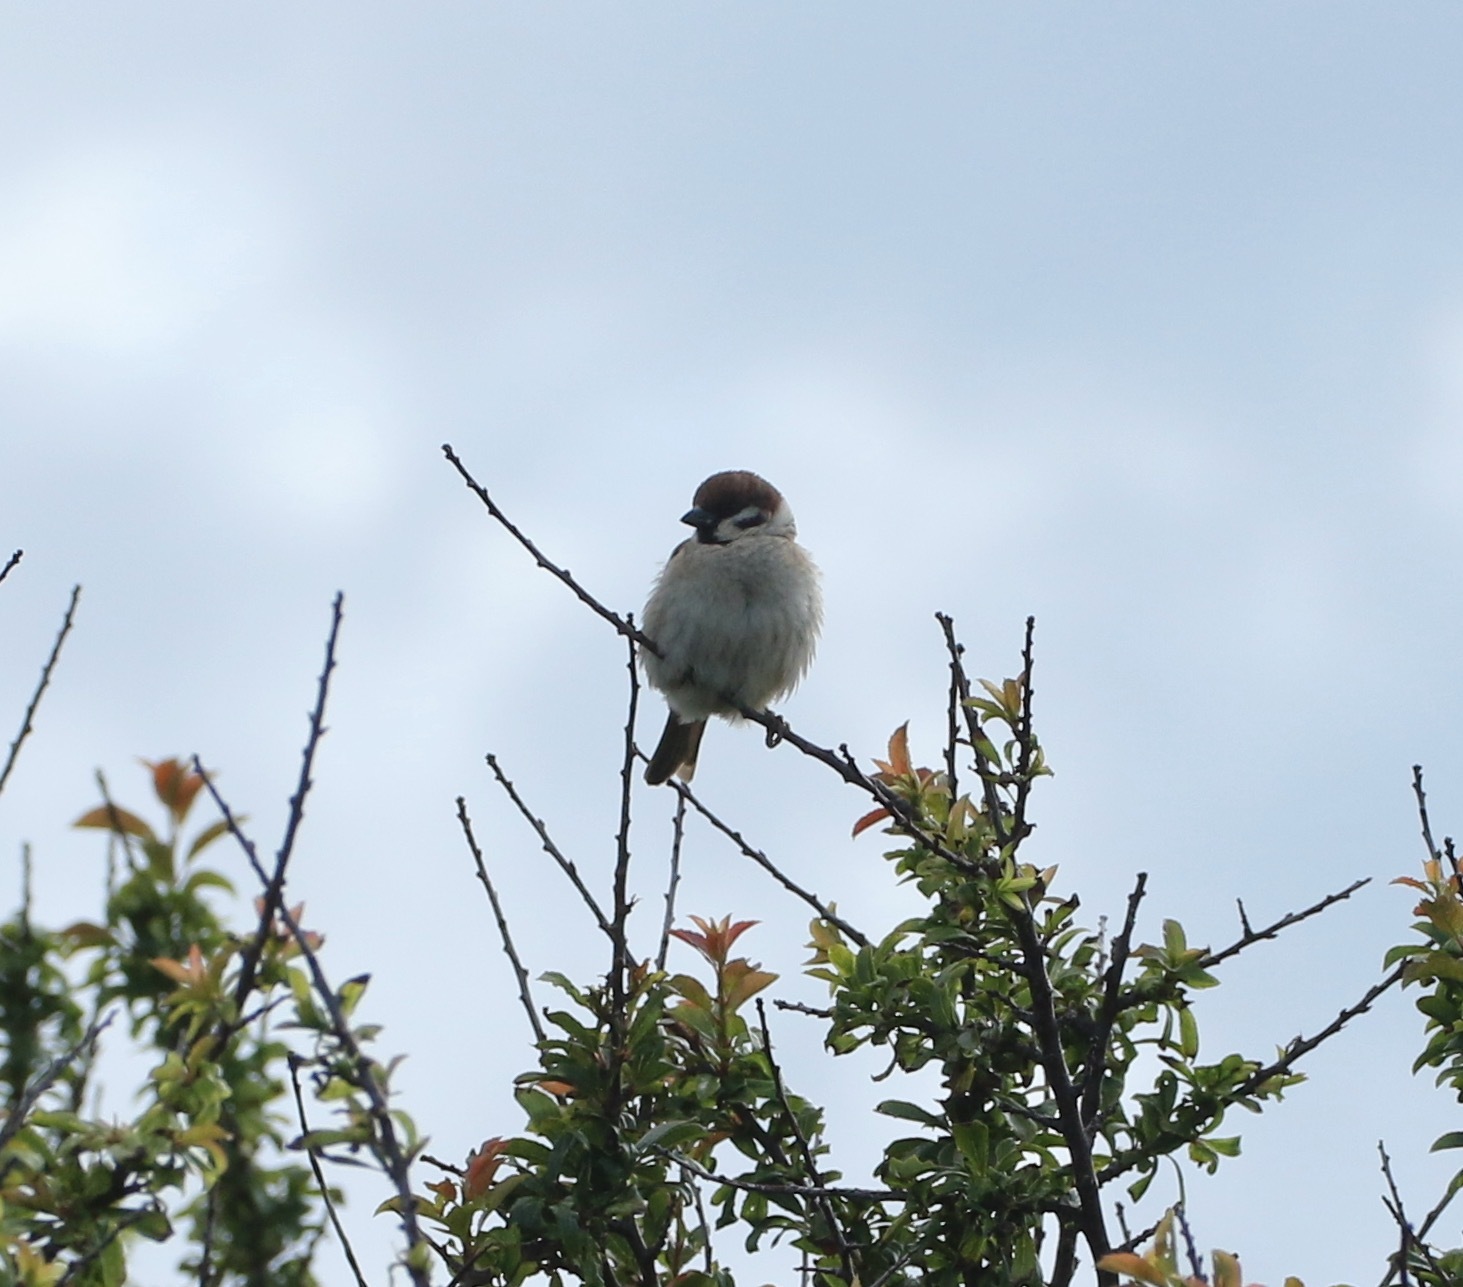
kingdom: Animalia
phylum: Chordata
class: Aves
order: Passeriformes
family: Passeridae
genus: Passer
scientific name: Passer montanus
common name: Eurasian tree sparrow
